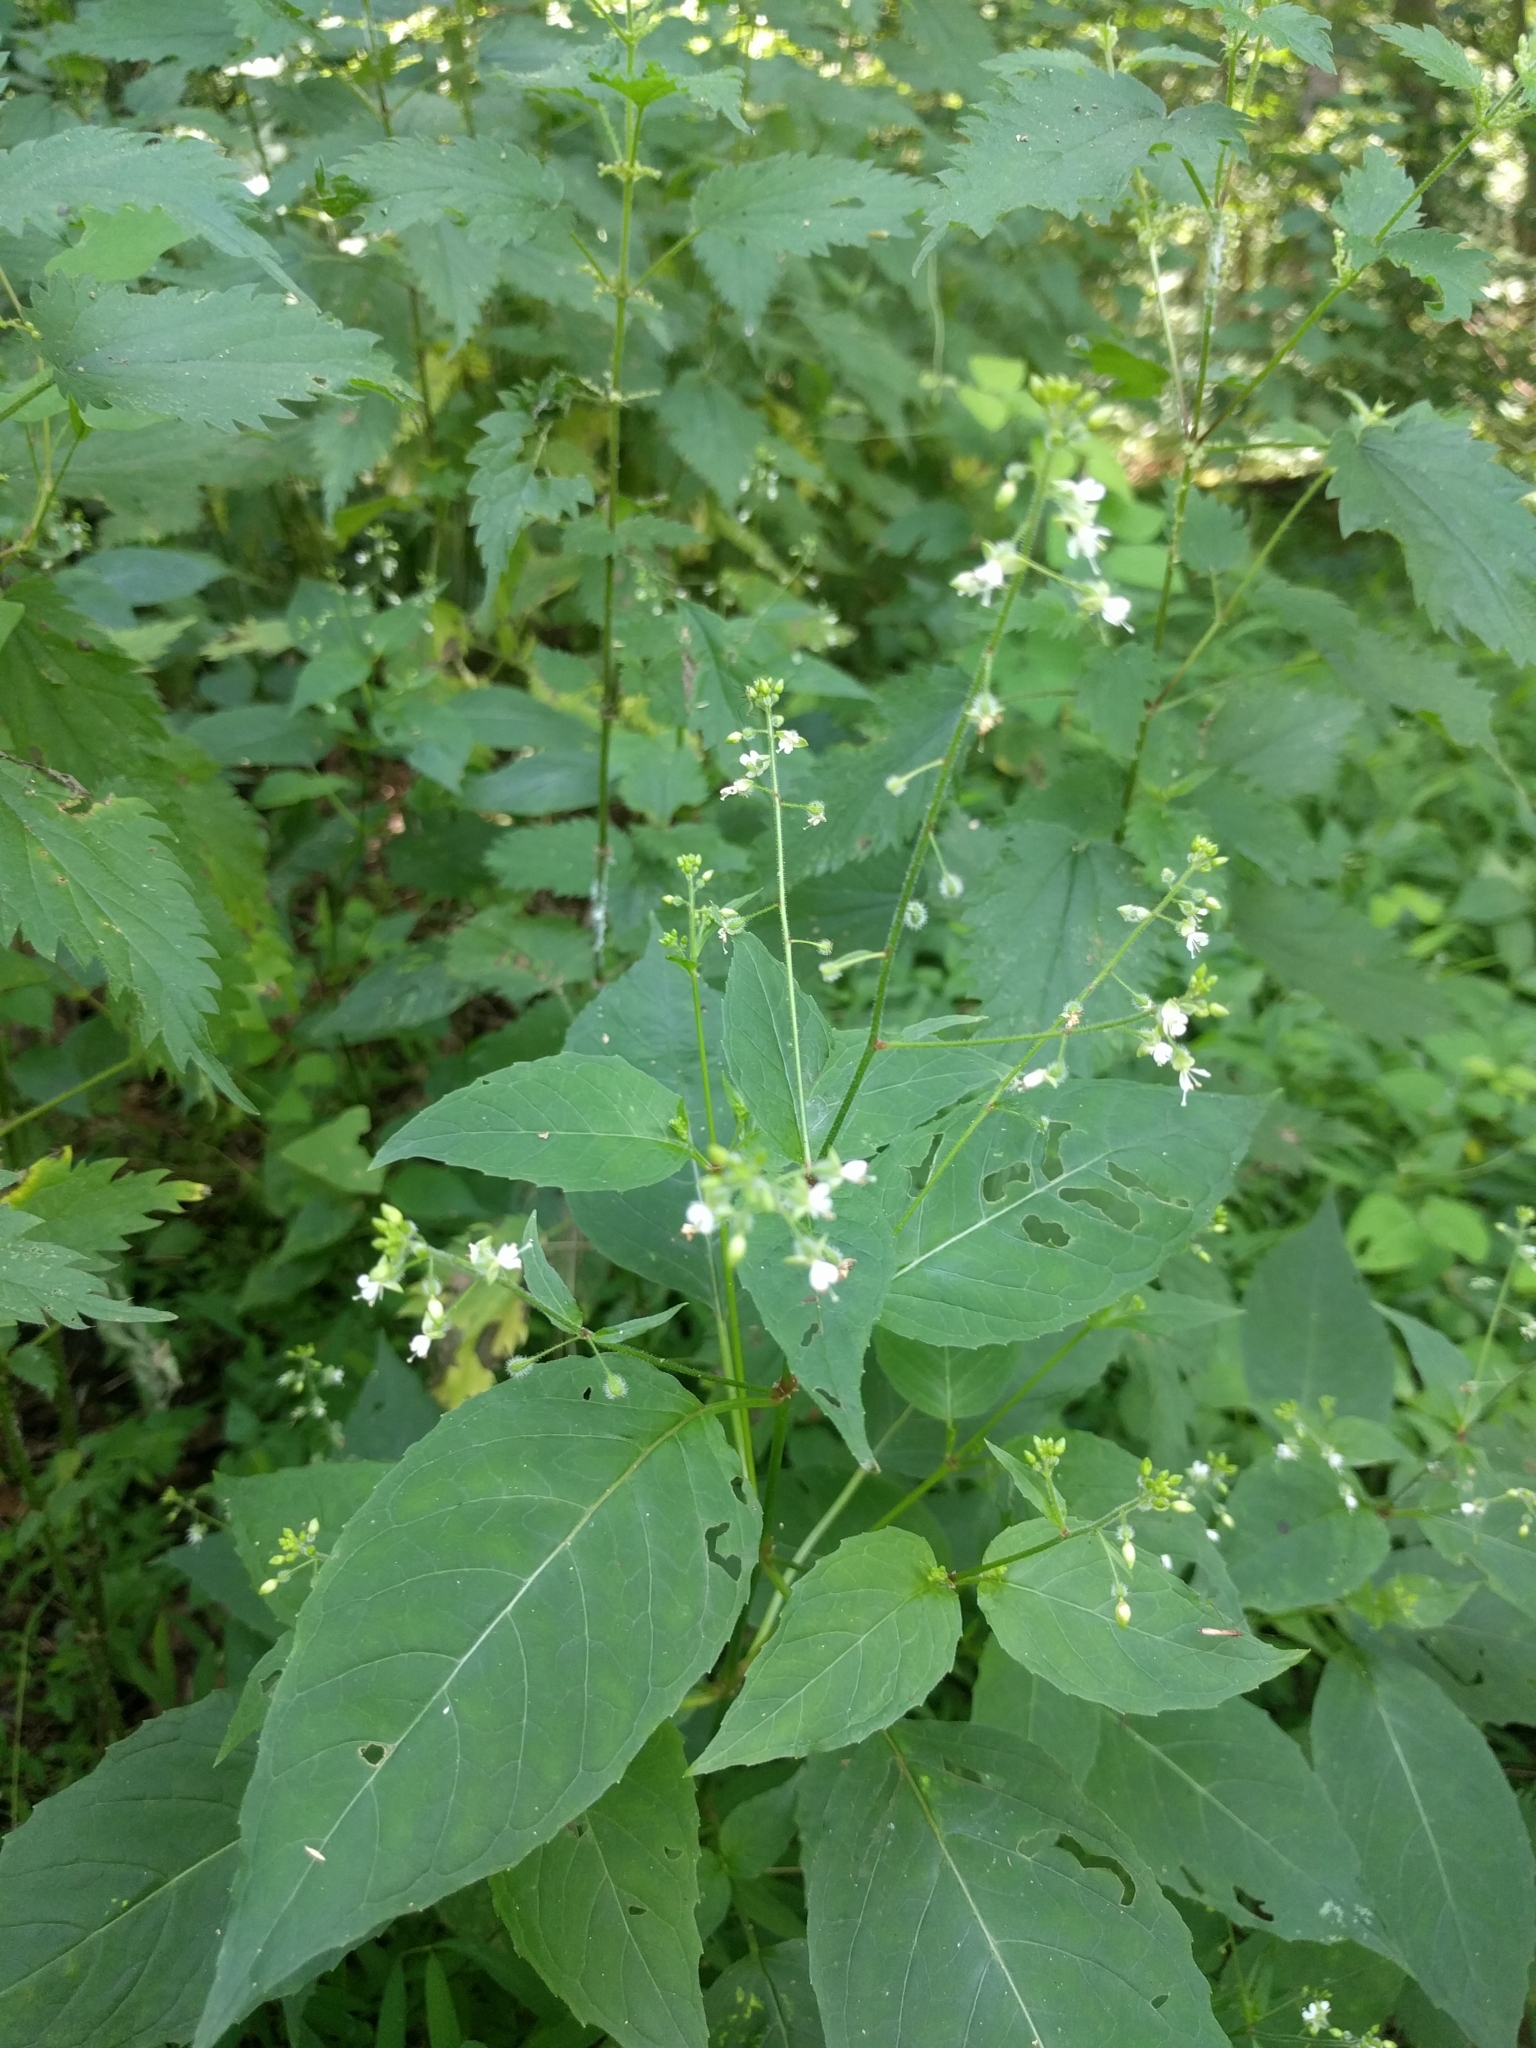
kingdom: Plantae
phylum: Tracheophyta
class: Magnoliopsida
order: Myrtales
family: Onagraceae
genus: Circaea
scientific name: Circaea canadensis
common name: Broad-leaved enchanter's nightshade
